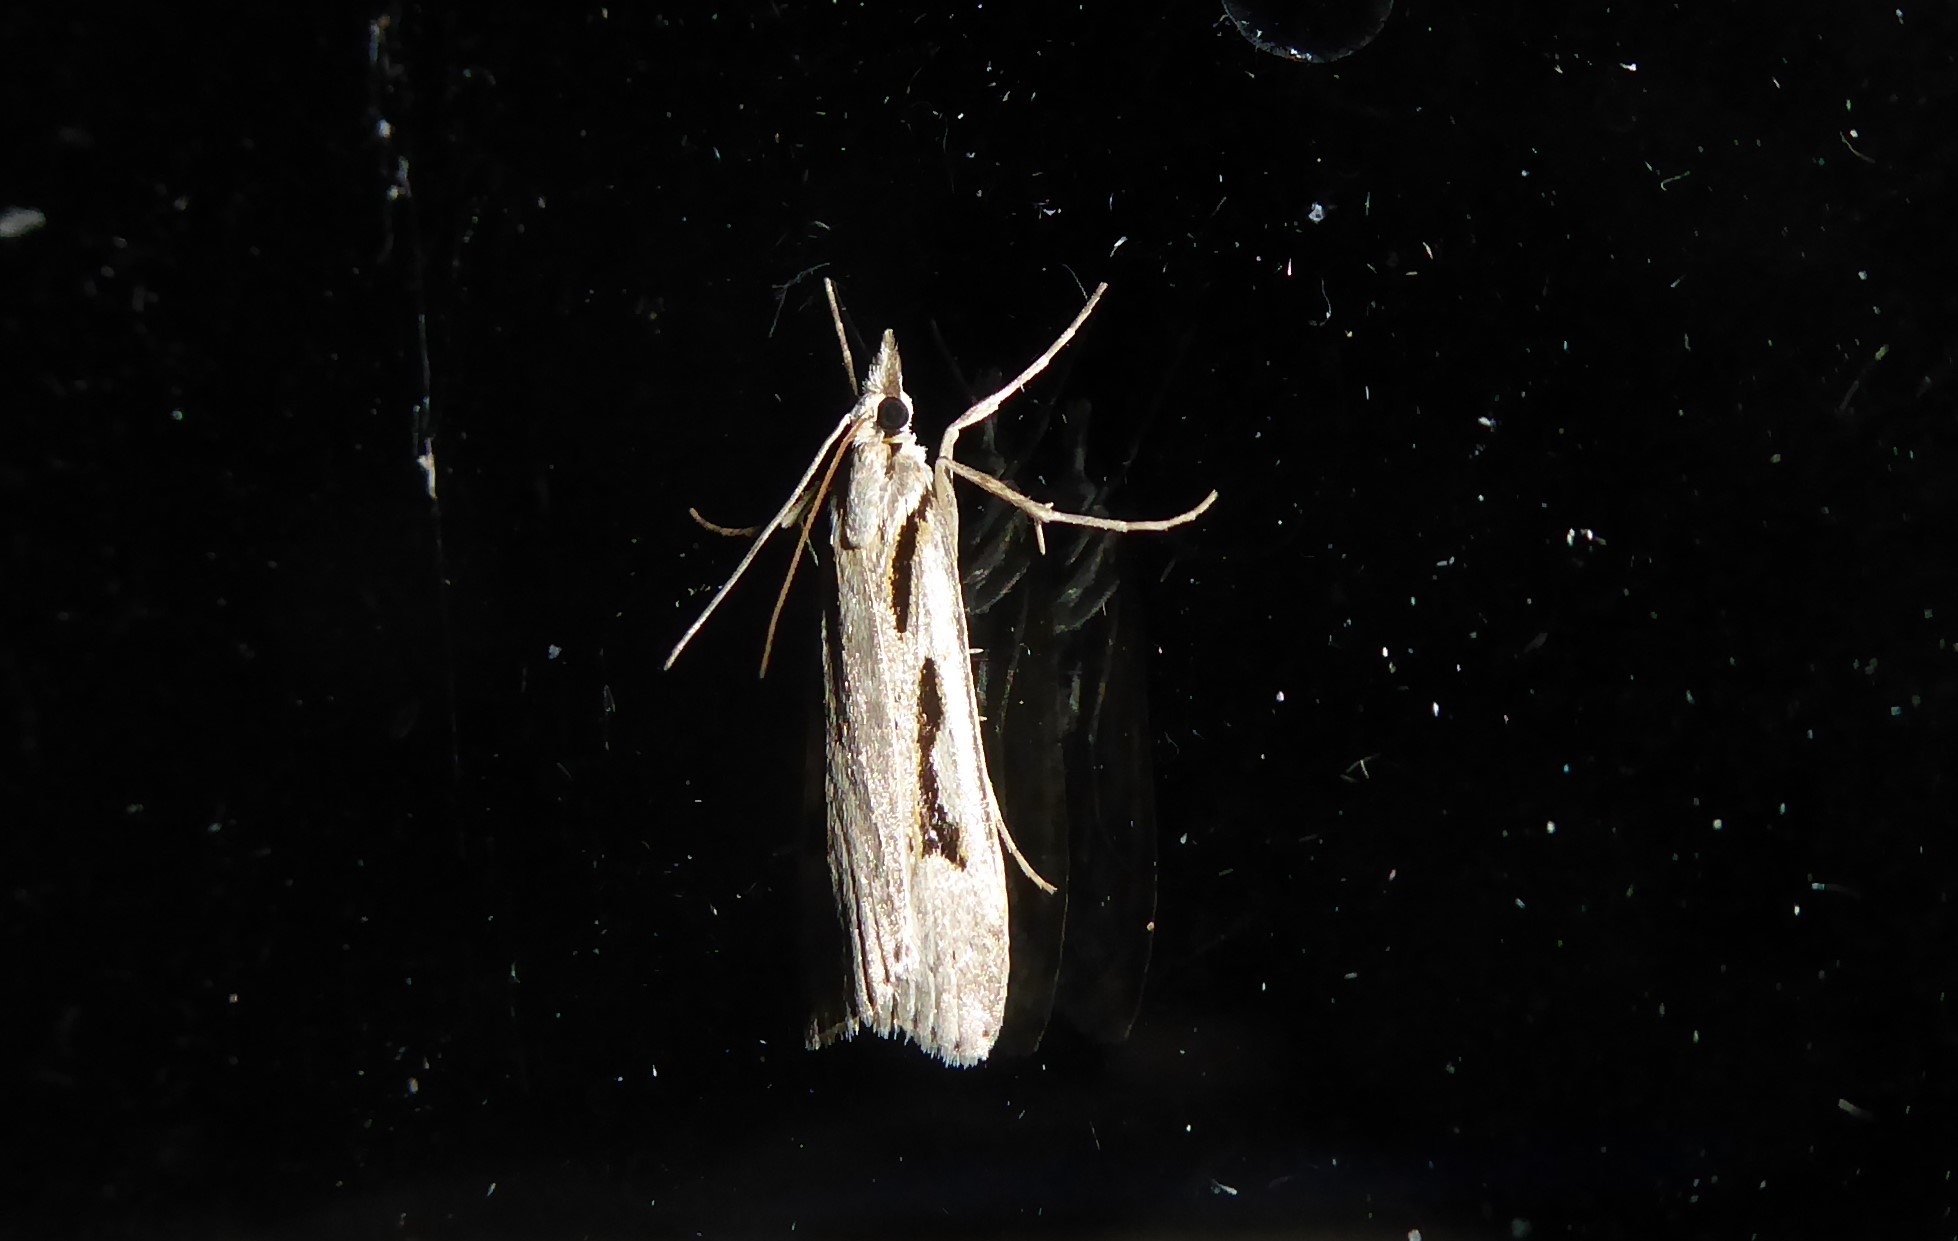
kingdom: Animalia
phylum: Arthropoda
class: Insecta
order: Lepidoptera
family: Crambidae
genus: Scoparia
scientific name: Scoparia rotuellus
